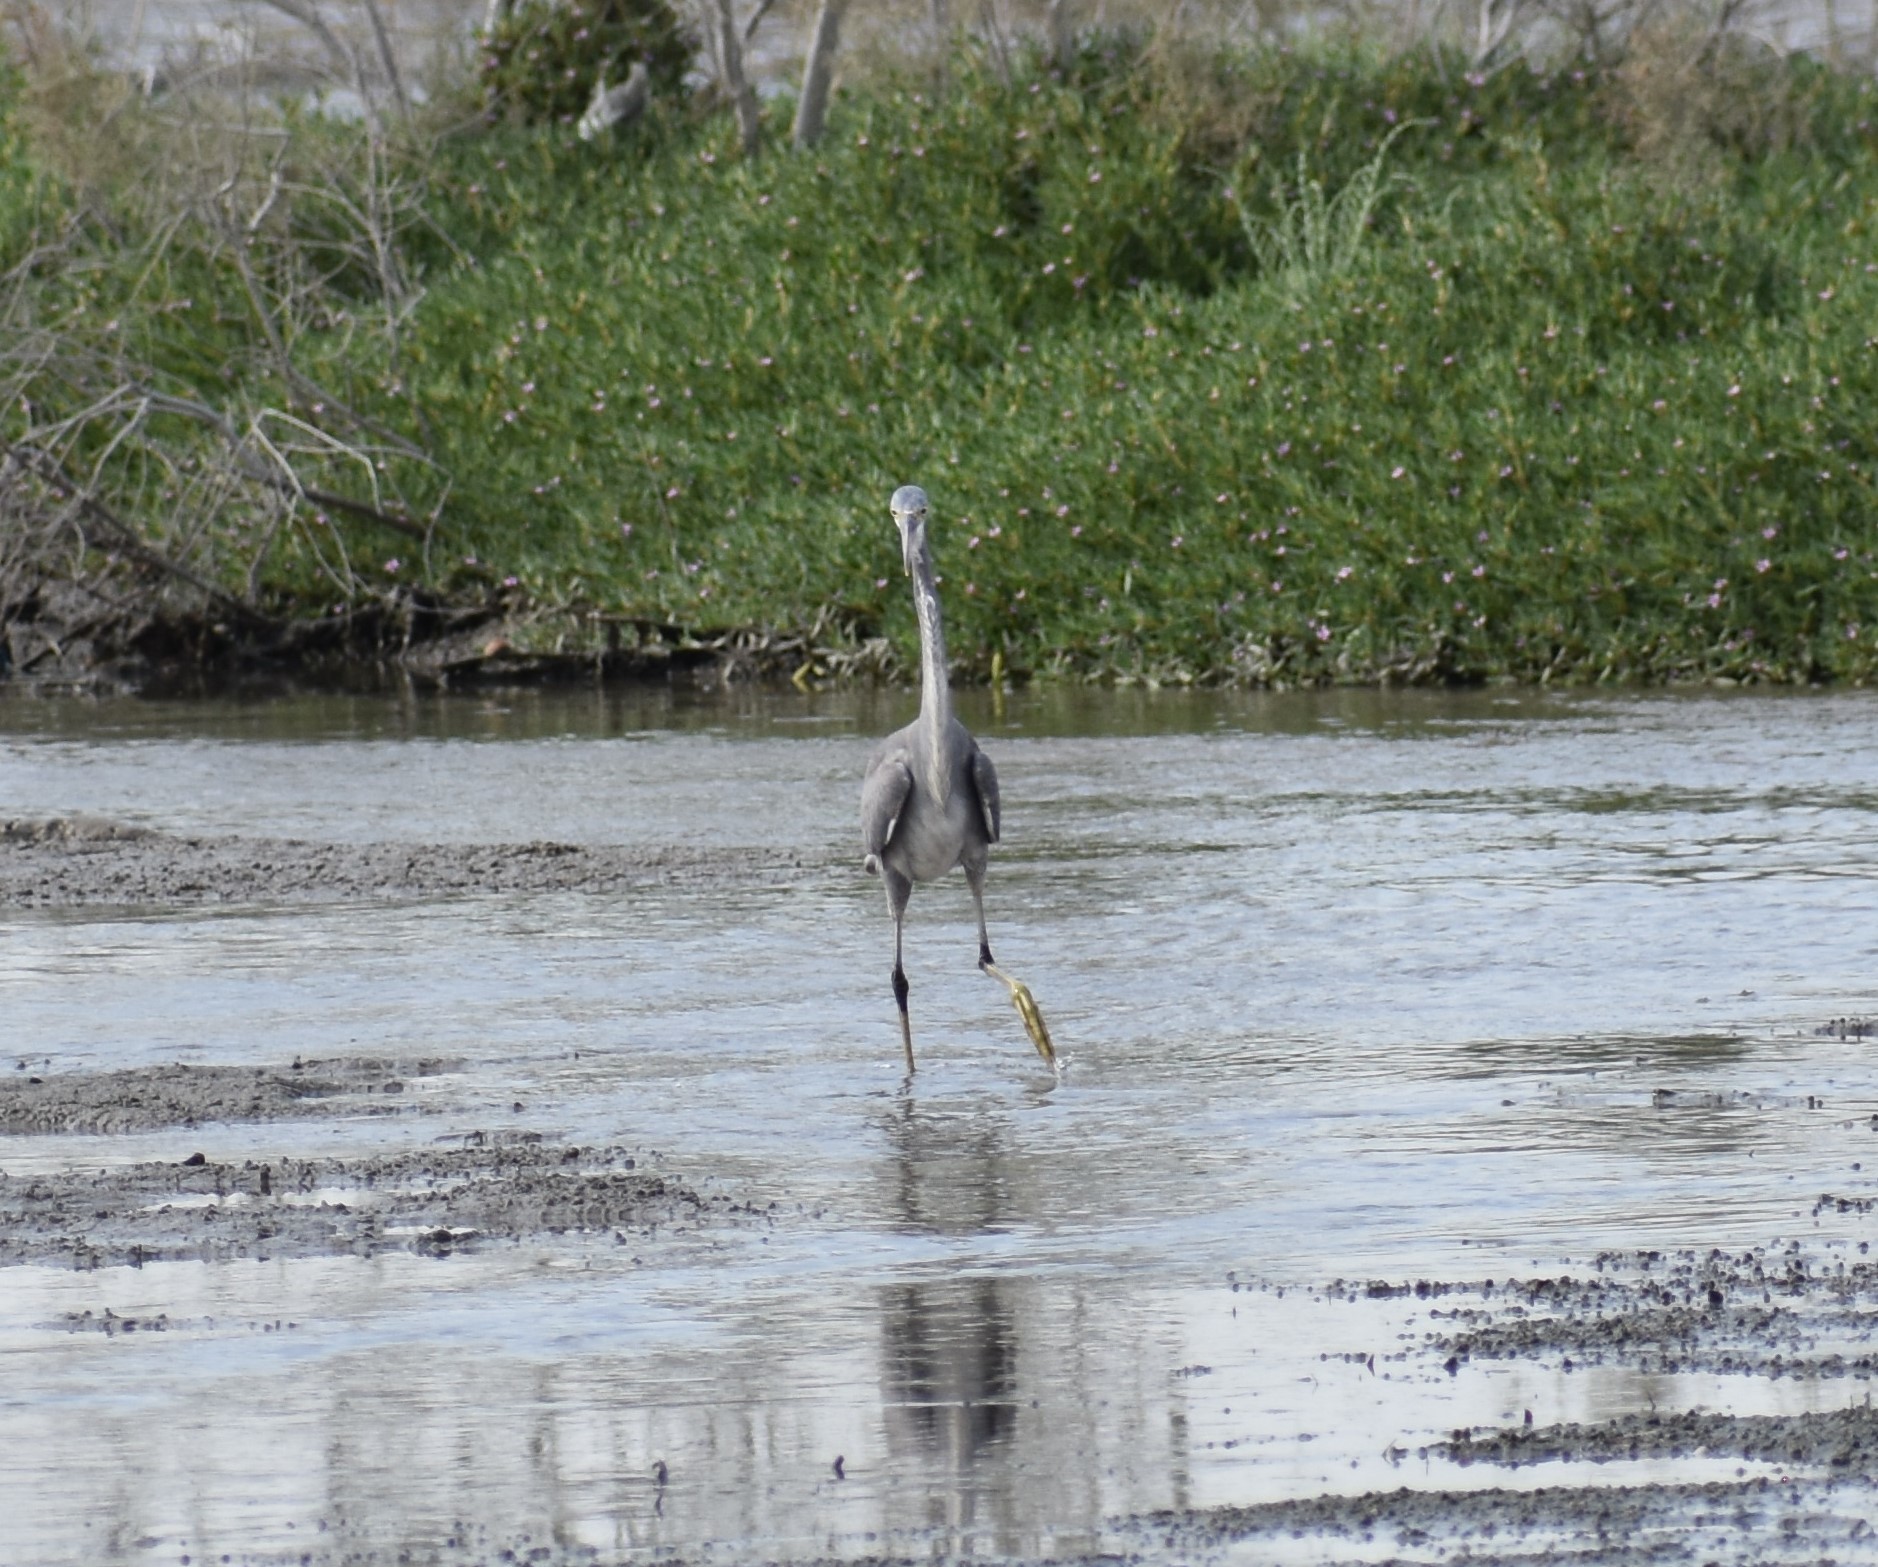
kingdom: Animalia
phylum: Chordata
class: Aves
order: Pelecaniformes
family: Ardeidae
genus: Egretta
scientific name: Egretta gularis
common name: Western reef-heron
